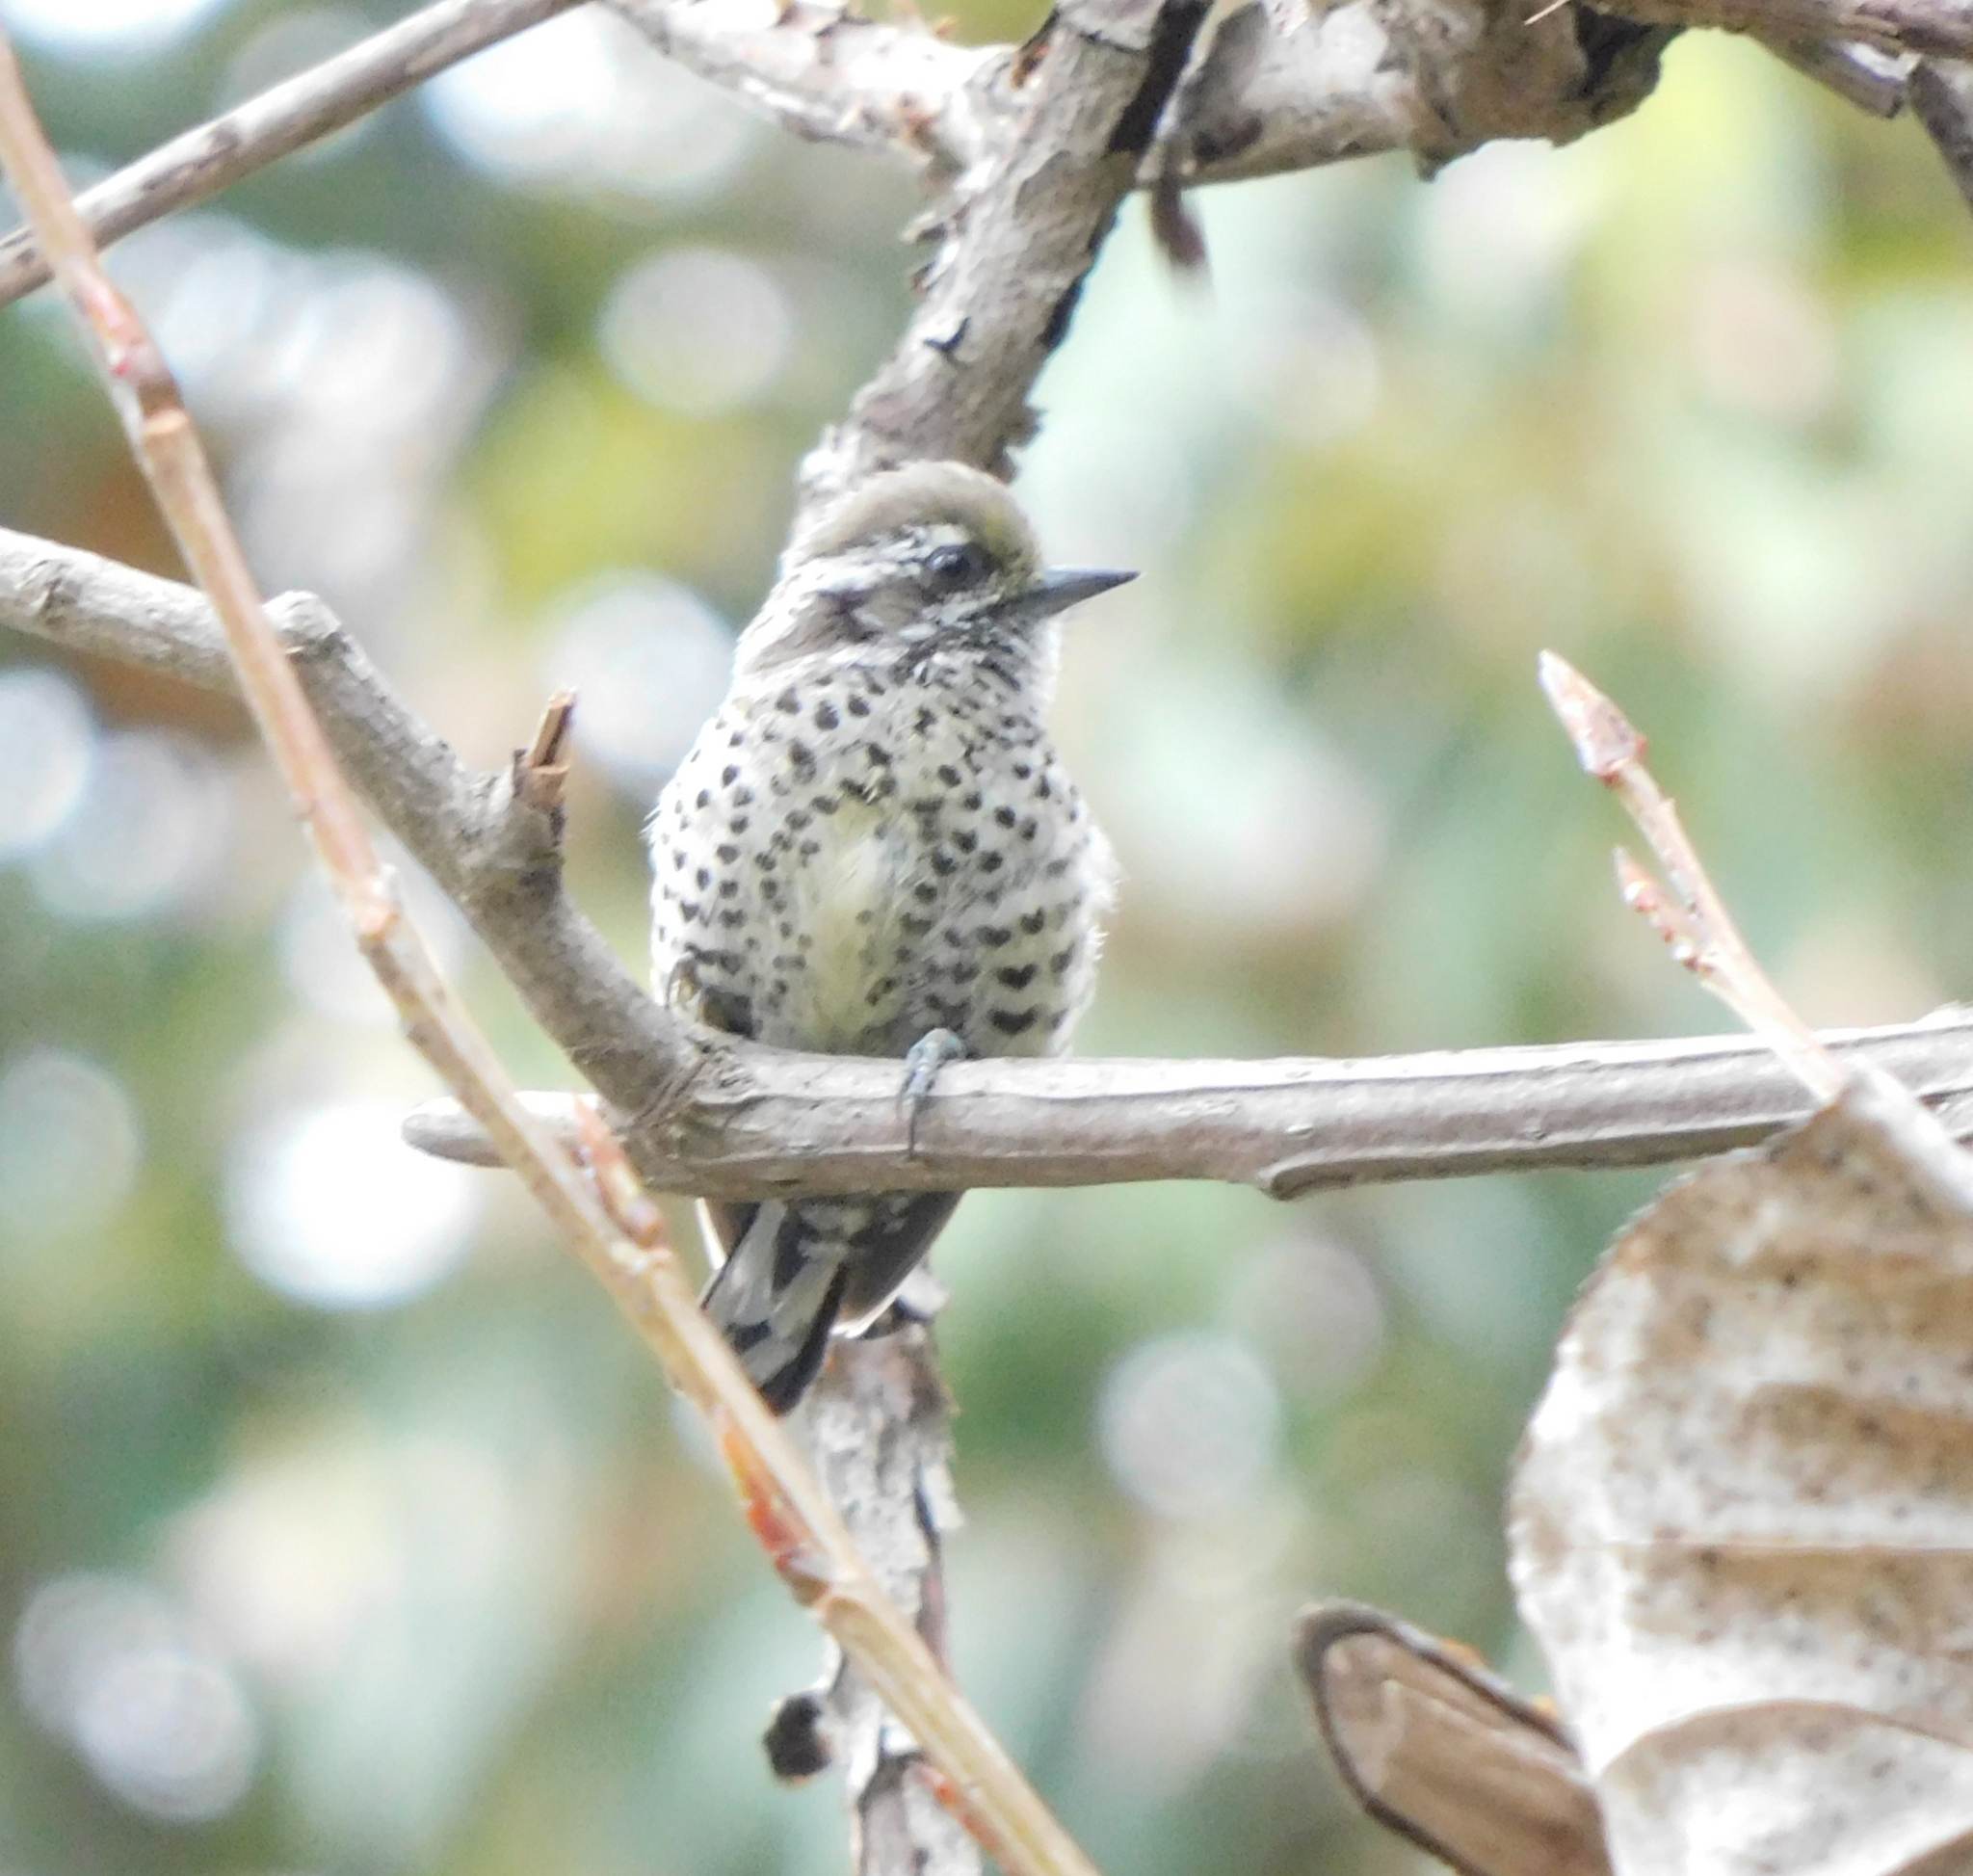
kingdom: Animalia
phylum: Chordata
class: Aves
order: Piciformes
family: Picidae
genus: Picumnus
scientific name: Picumnus innominatus
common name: Speckled piculet
